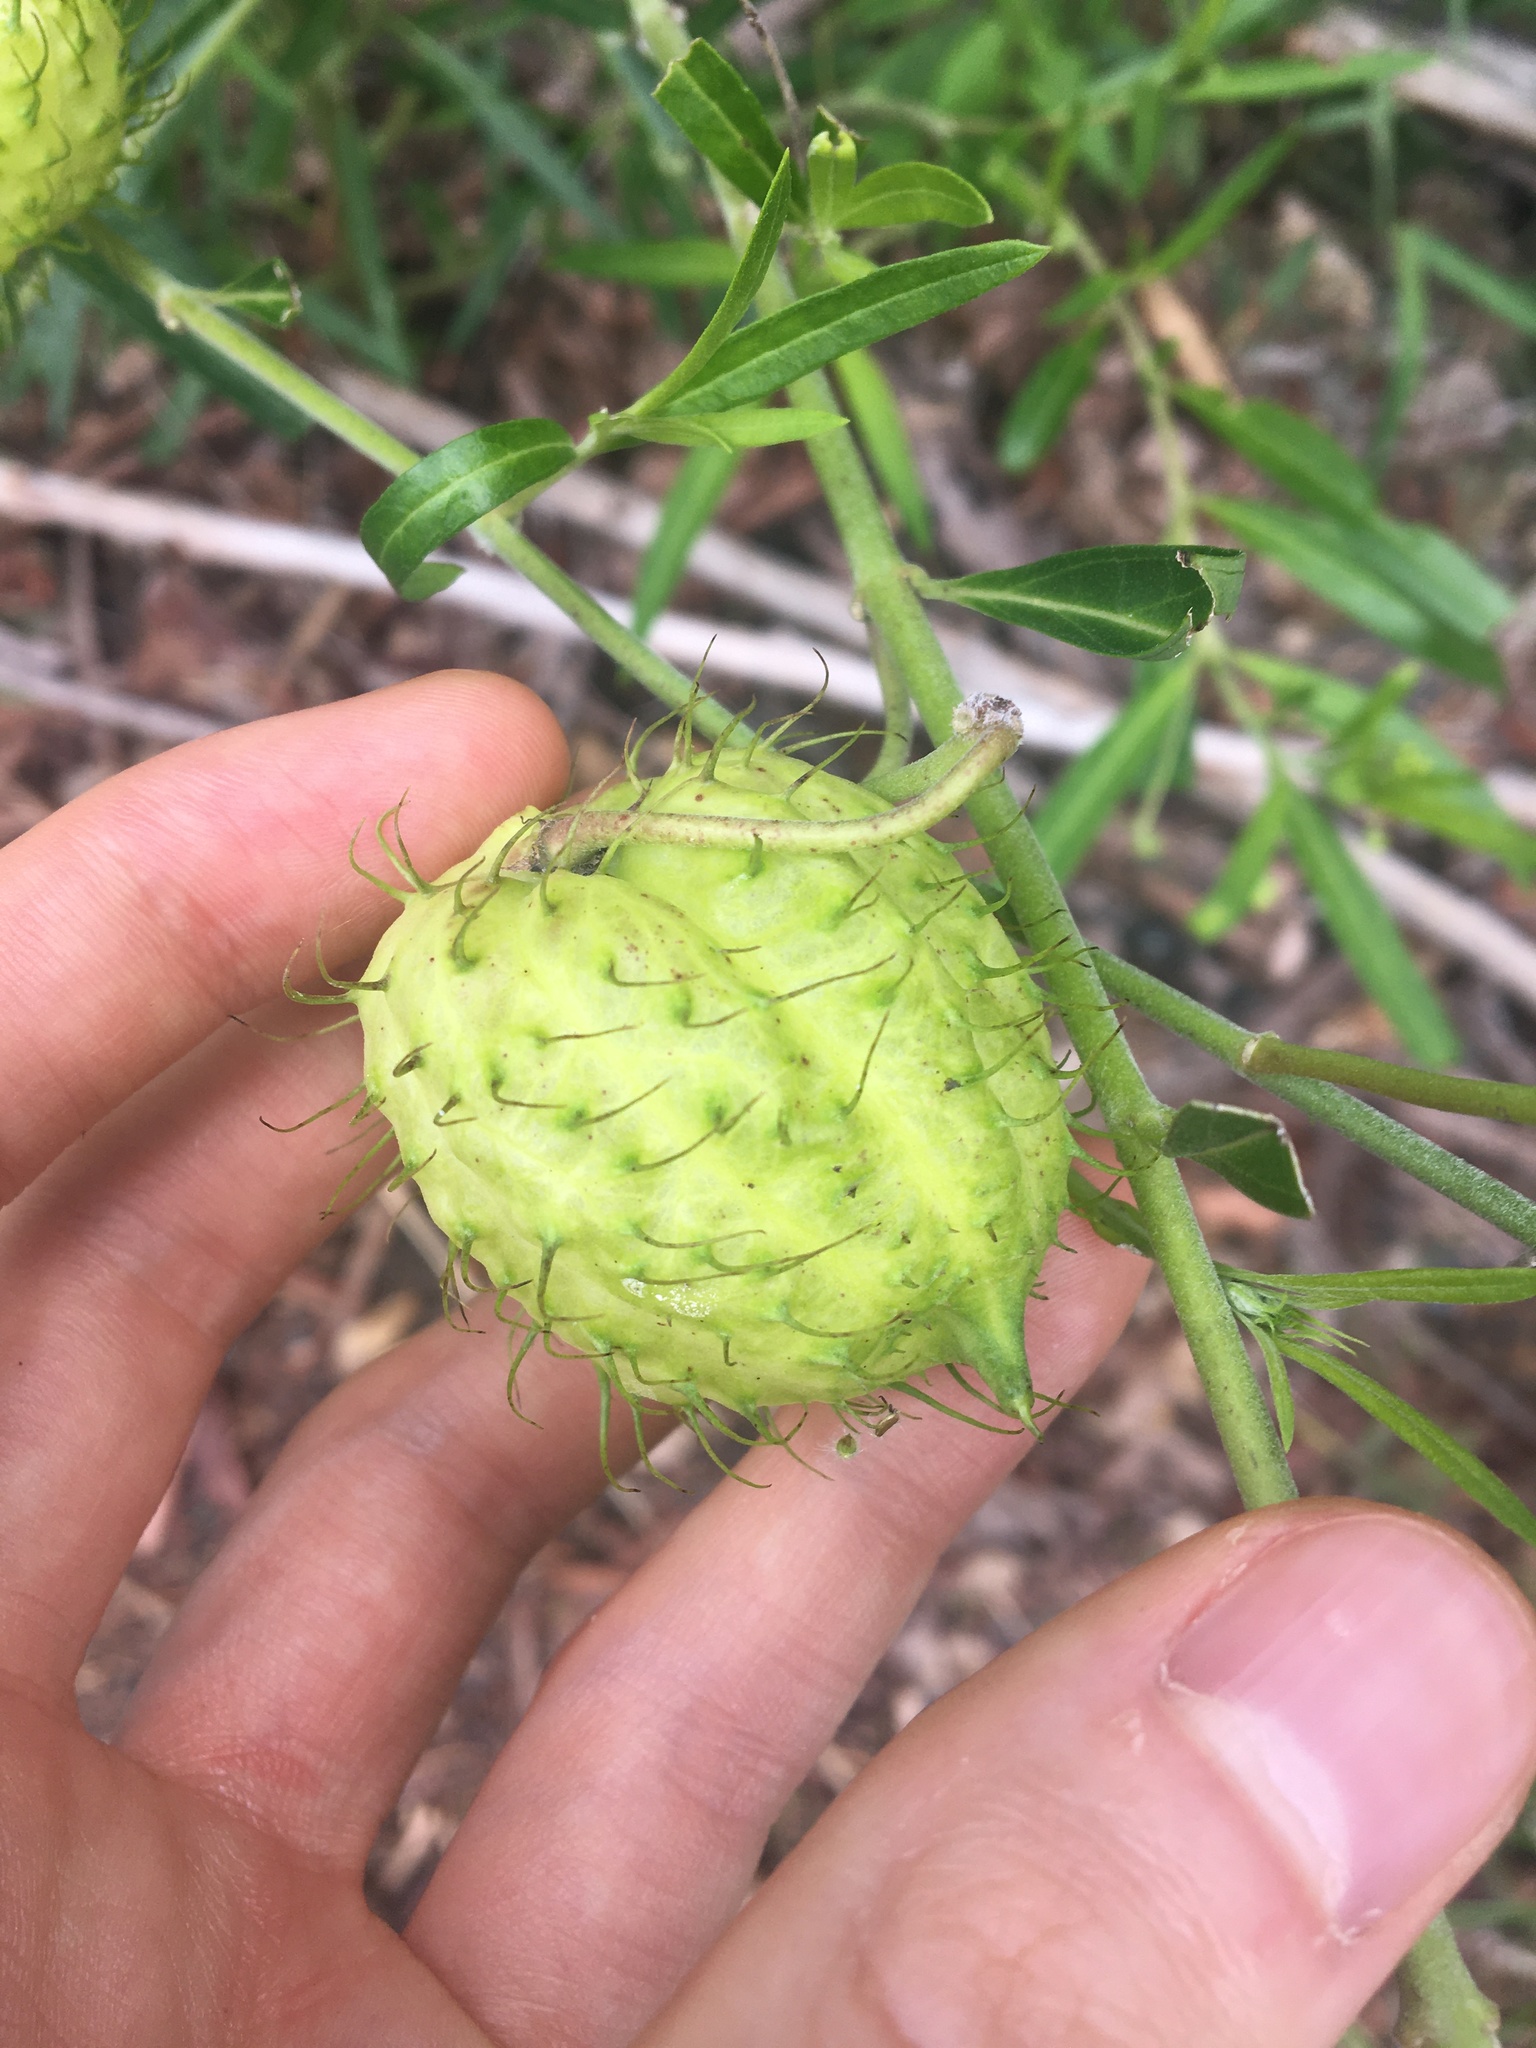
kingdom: Plantae
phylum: Tracheophyta
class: Magnoliopsida
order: Gentianales
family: Apocynaceae
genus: Gomphocarpus
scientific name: Gomphocarpus physocarpus
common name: Balloon cotton bush
